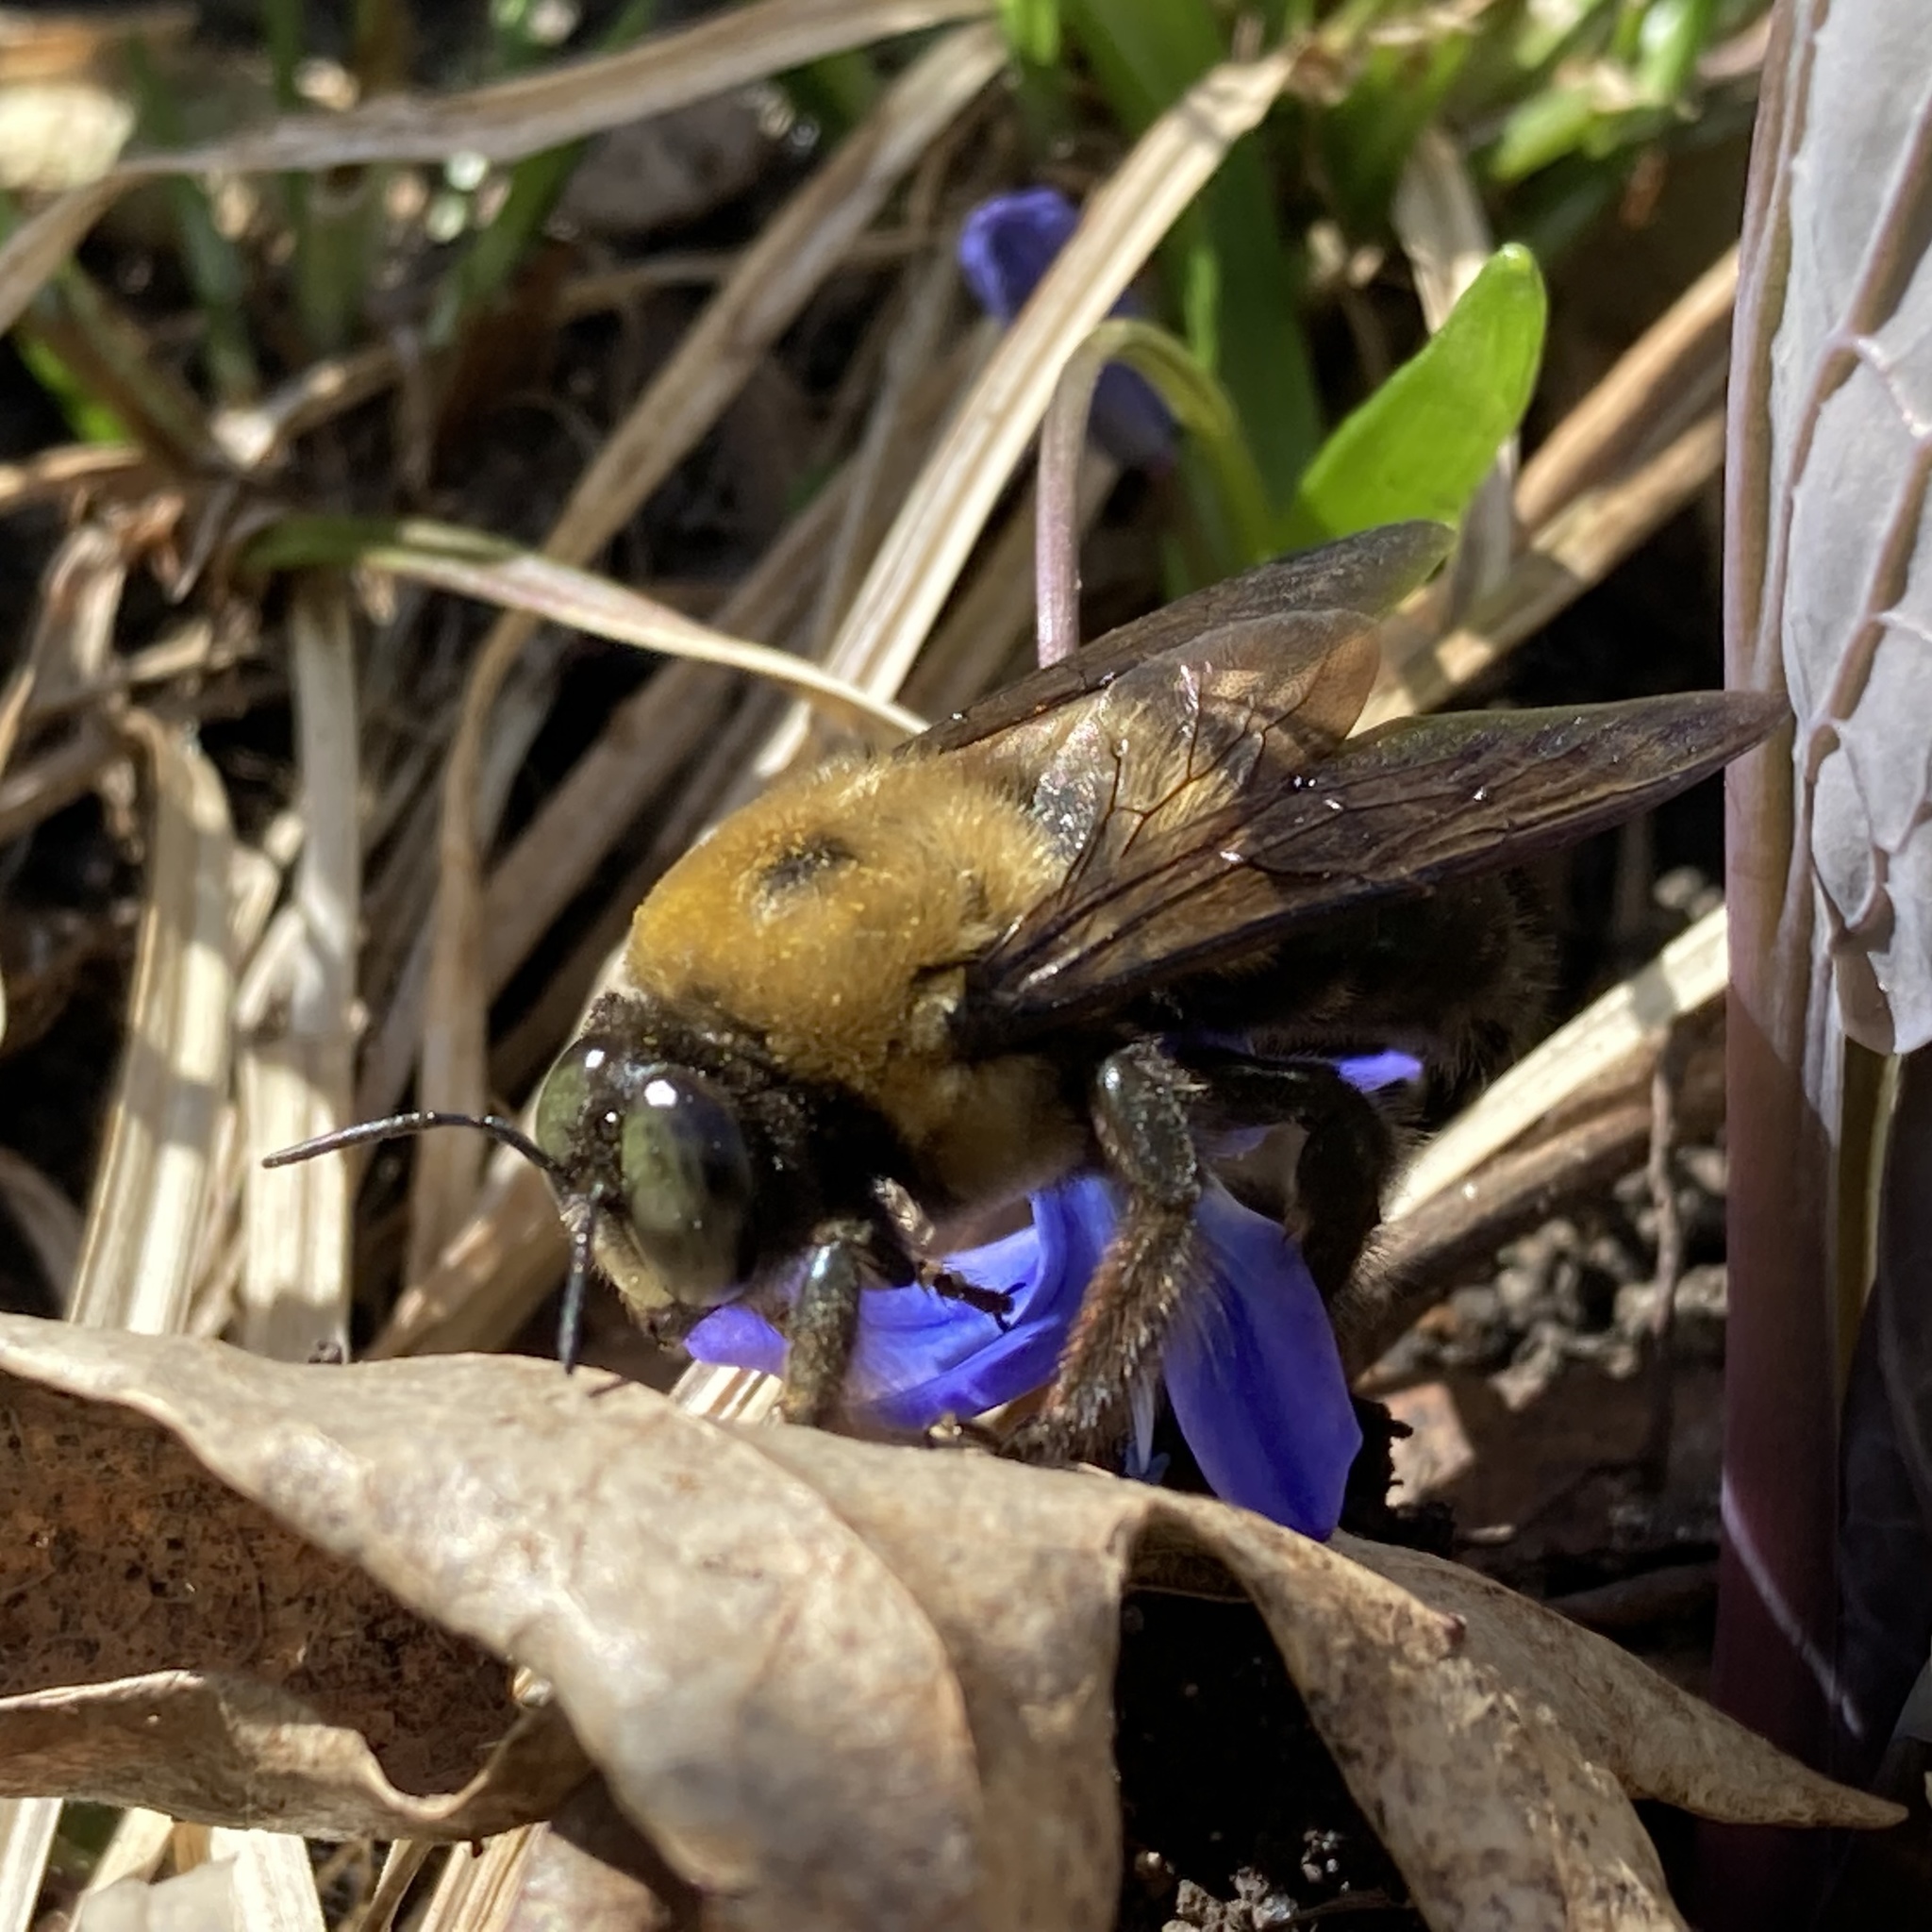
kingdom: Animalia
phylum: Arthropoda
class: Insecta
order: Hymenoptera
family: Apidae
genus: Xylocopa
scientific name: Xylocopa virginica
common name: Carpenter bee
